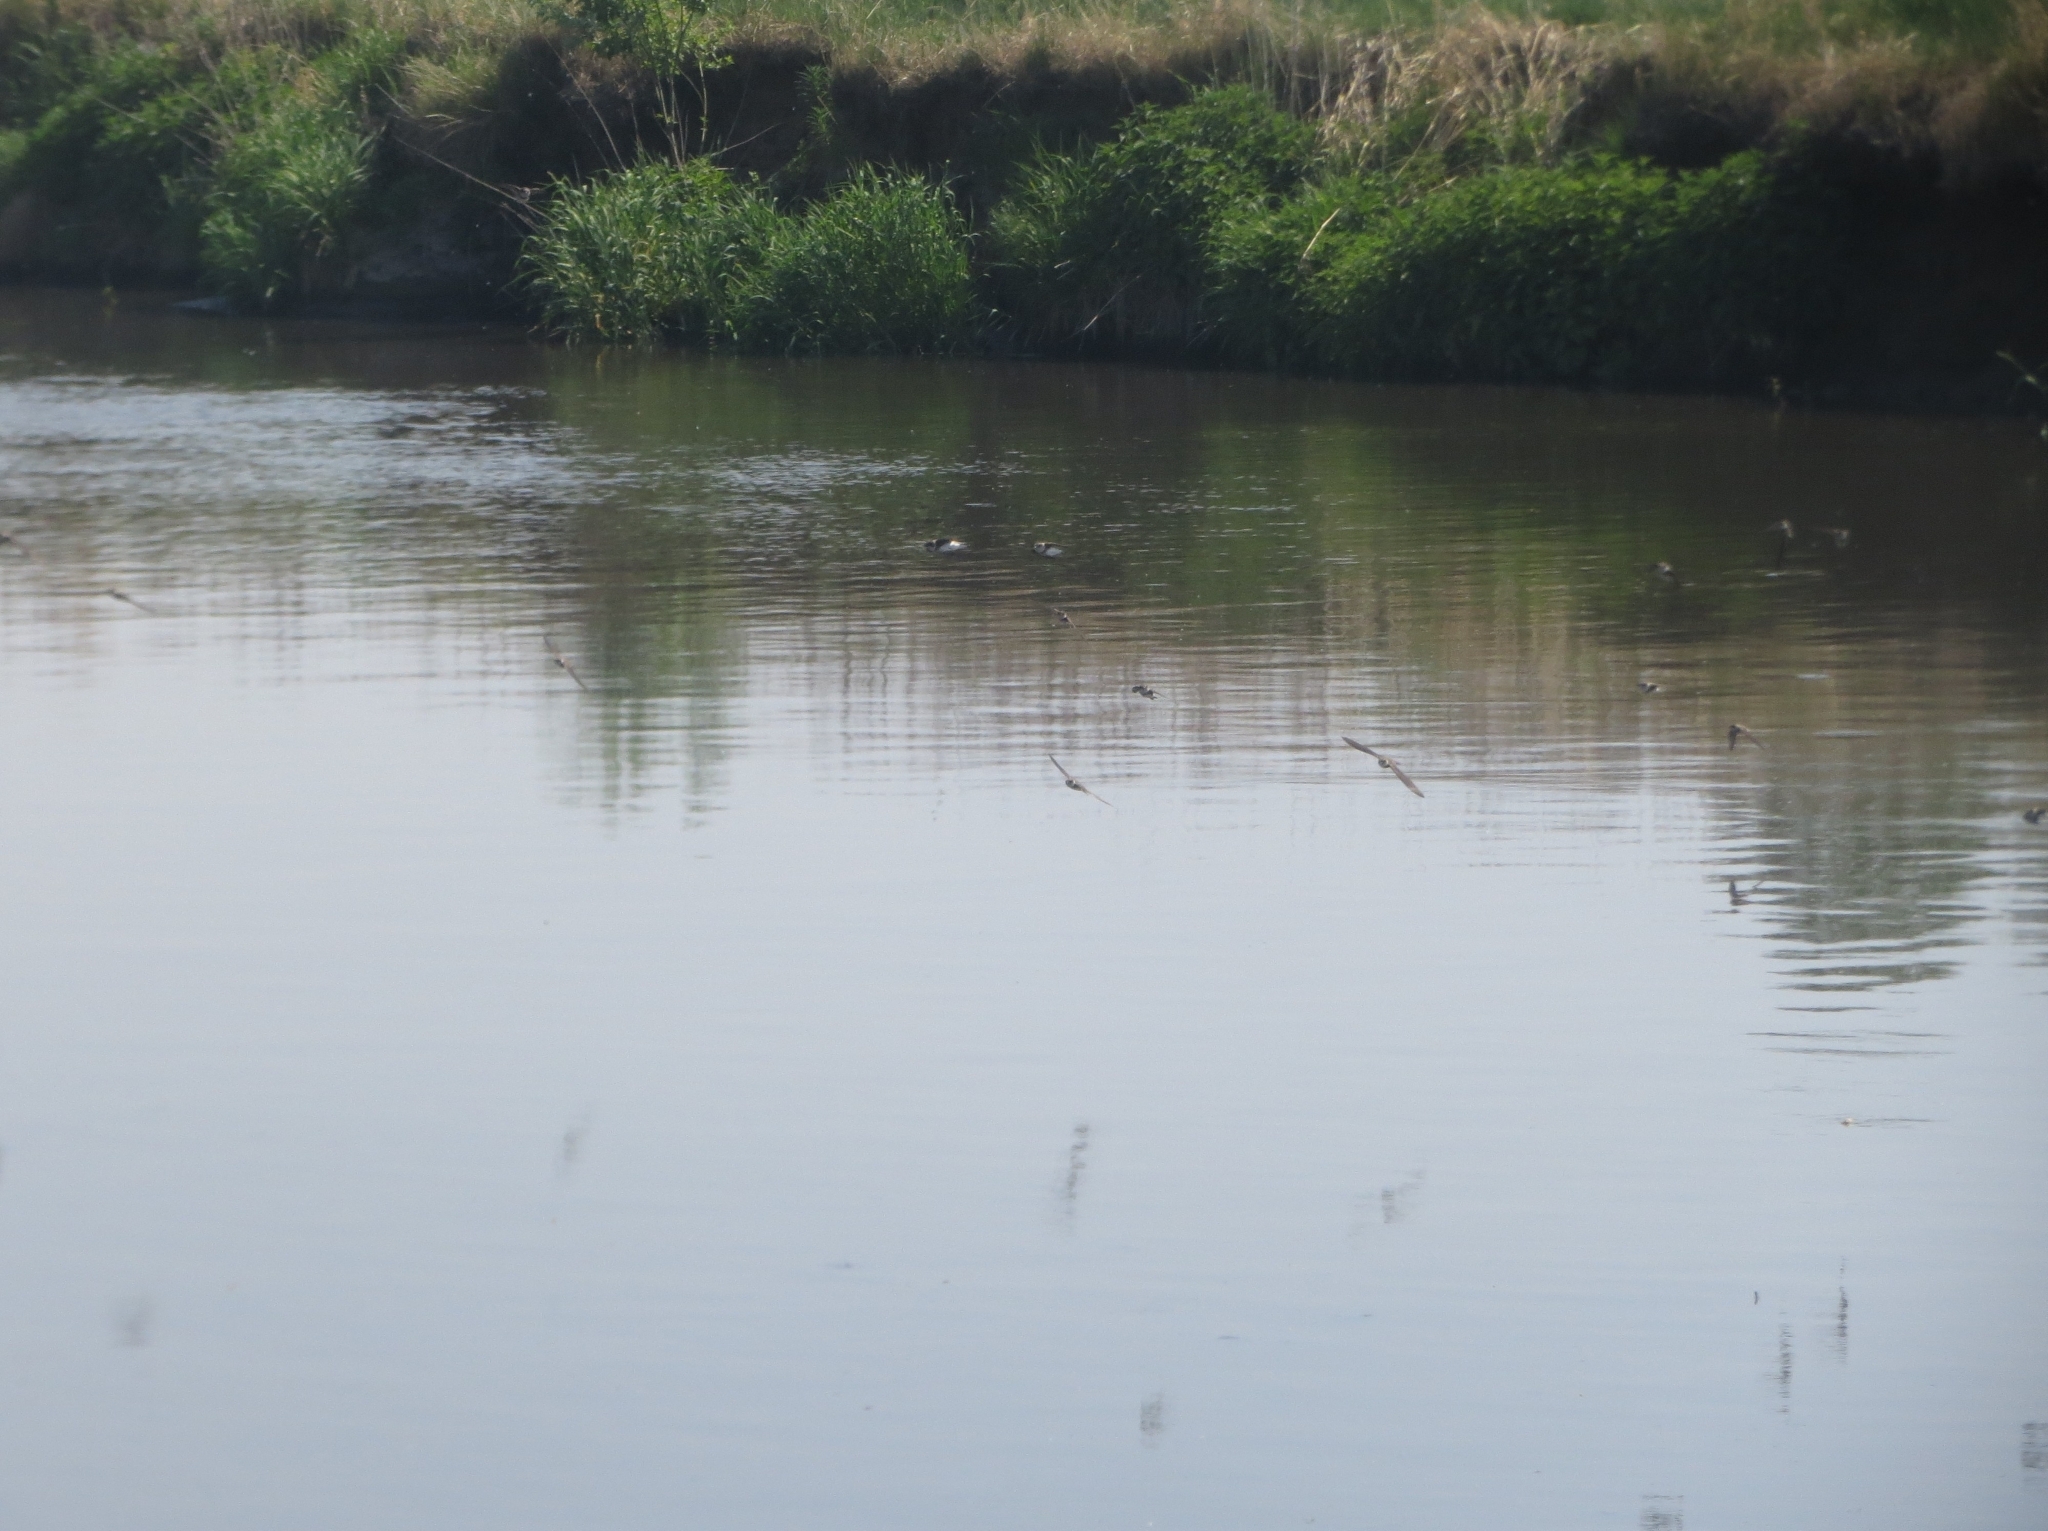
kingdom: Animalia
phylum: Chordata
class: Aves
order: Passeriformes
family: Hirundinidae
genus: Riparia
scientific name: Riparia riparia
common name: Sand martin
